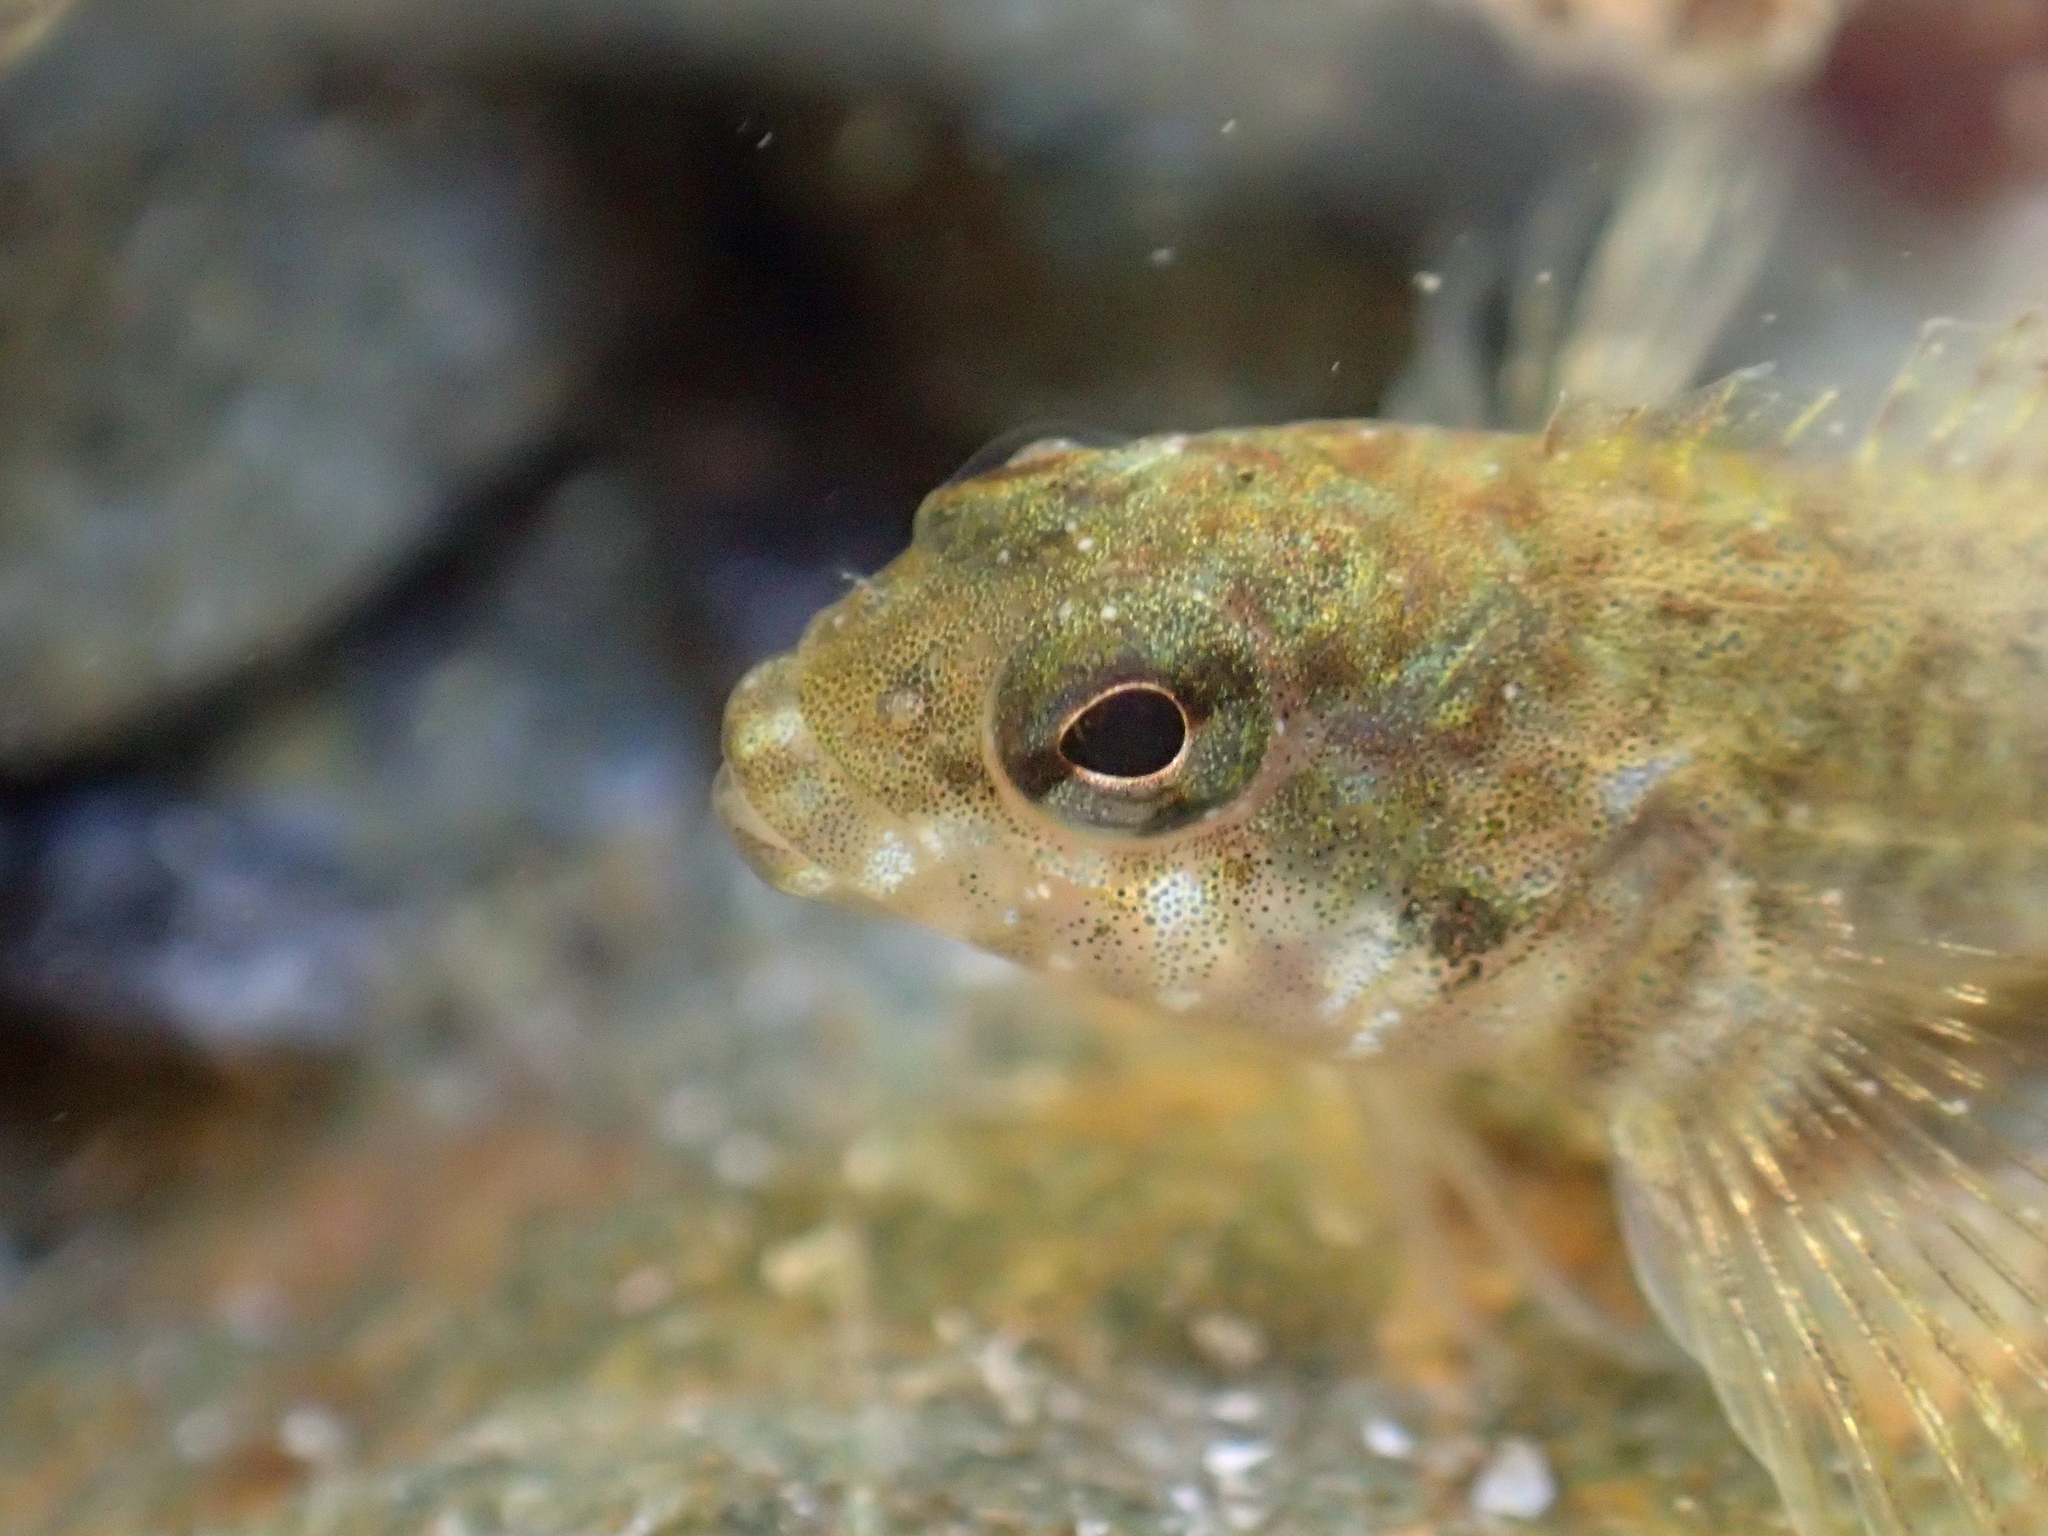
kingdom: Animalia
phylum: Chordata
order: Perciformes
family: Tripterygiidae
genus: Bellapiscis
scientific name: Bellapiscis medius
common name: Twister
